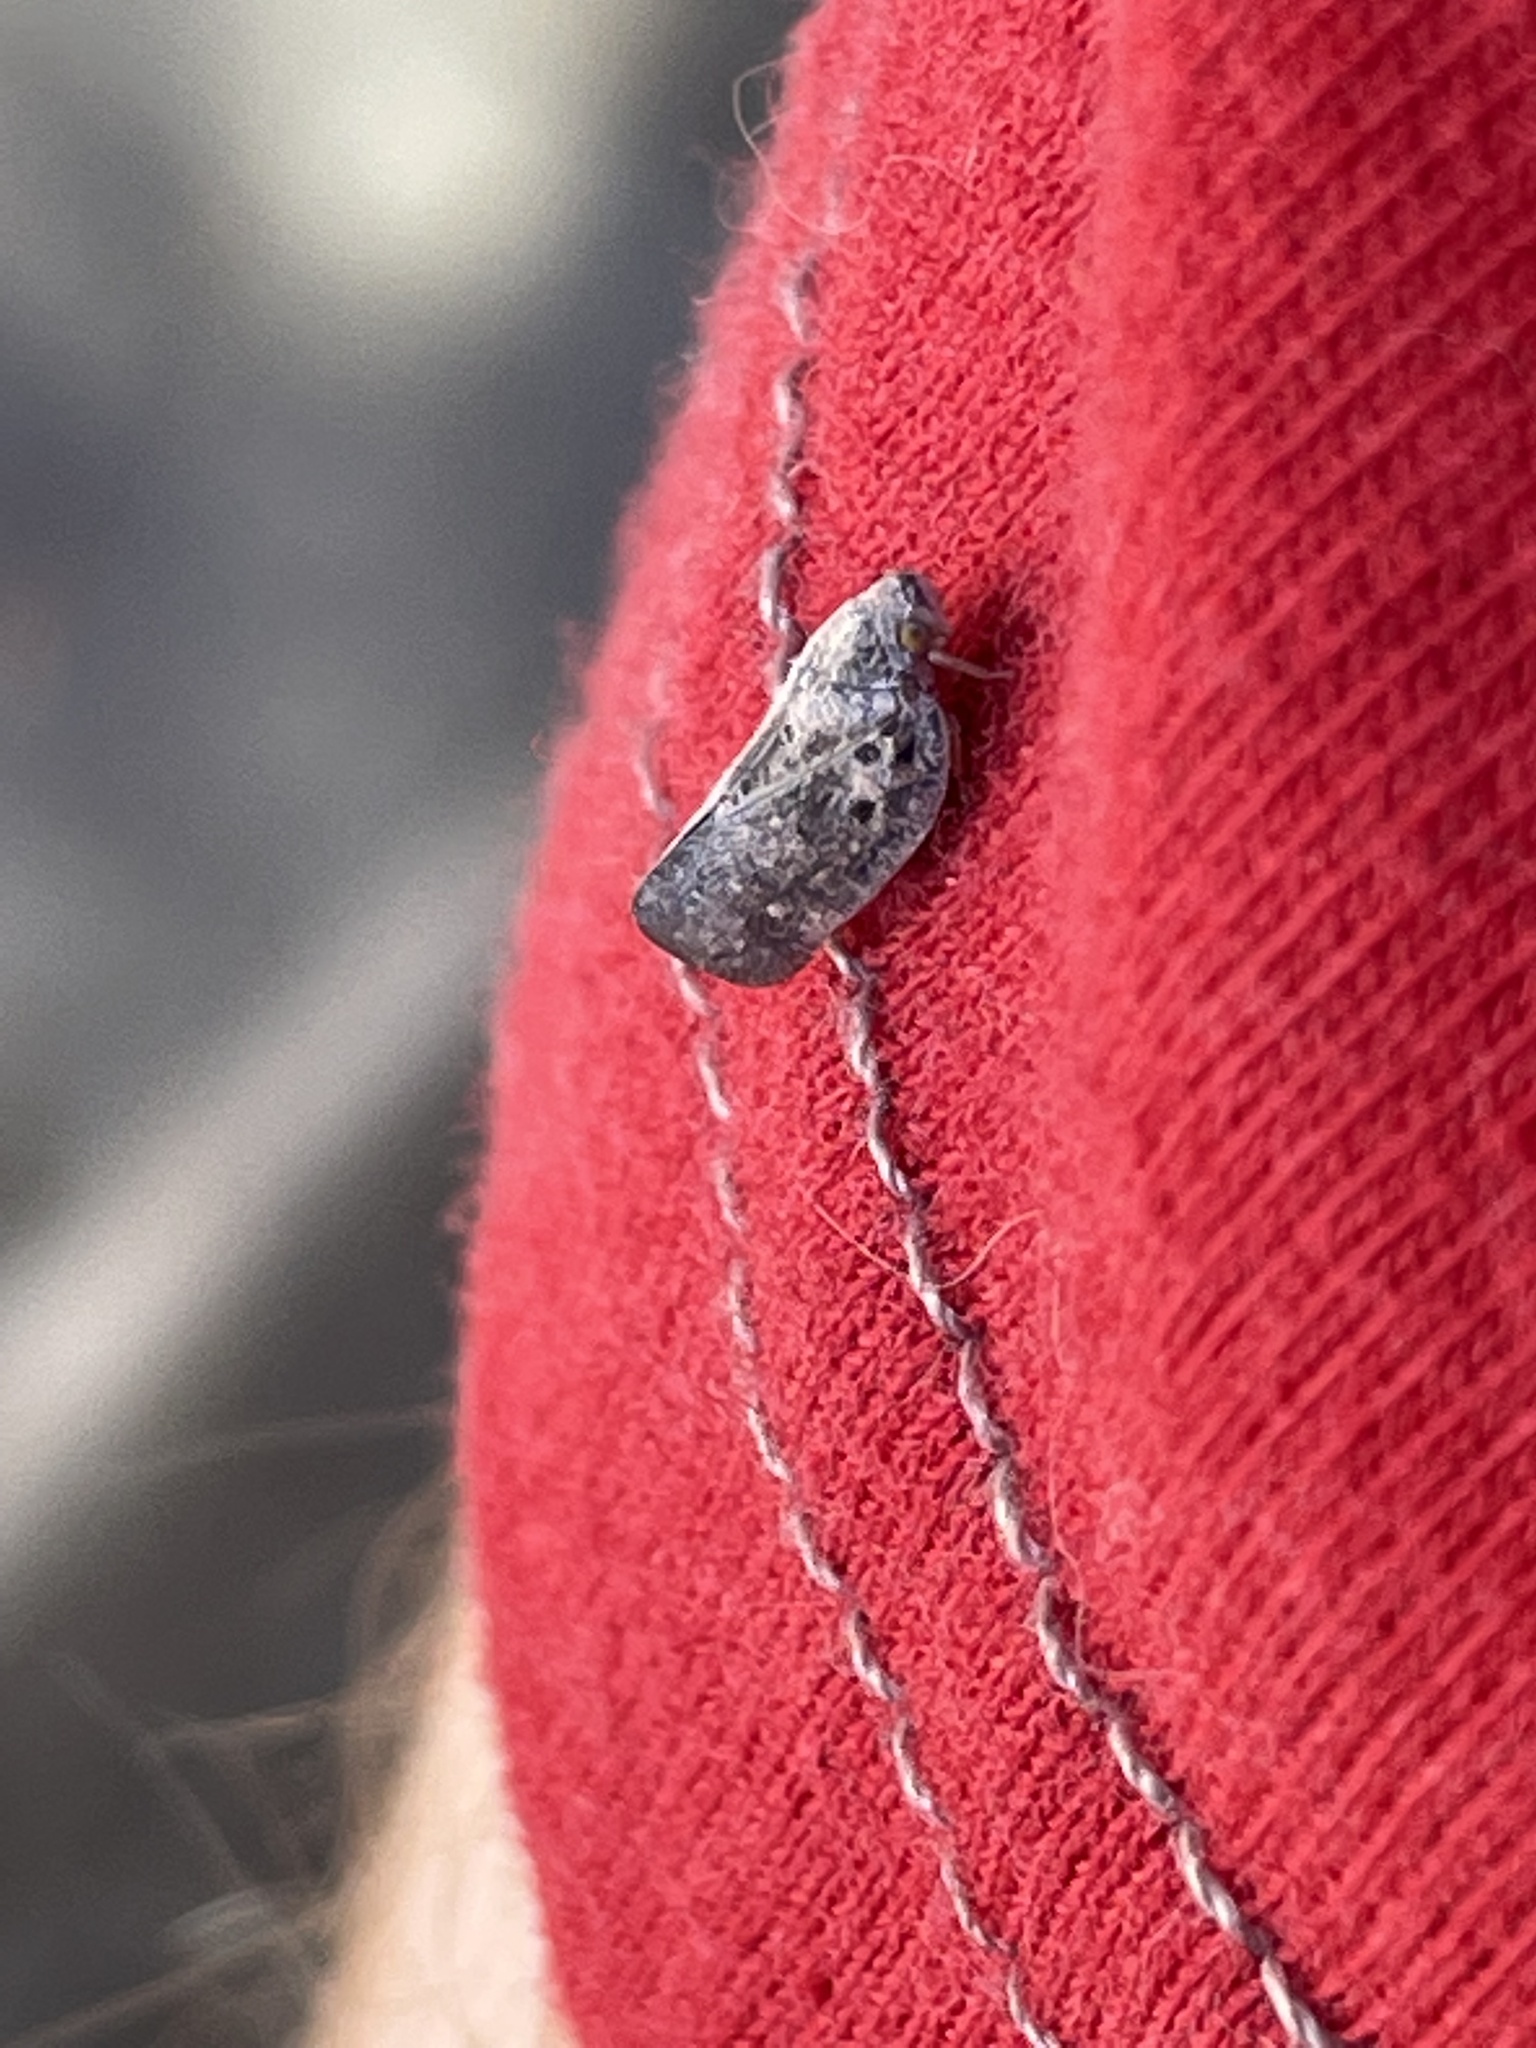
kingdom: Animalia
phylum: Arthropoda
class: Insecta
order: Hemiptera
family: Flatidae
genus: Metcalfa
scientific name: Metcalfa pruinosa
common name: Citrus flatid planthopper
